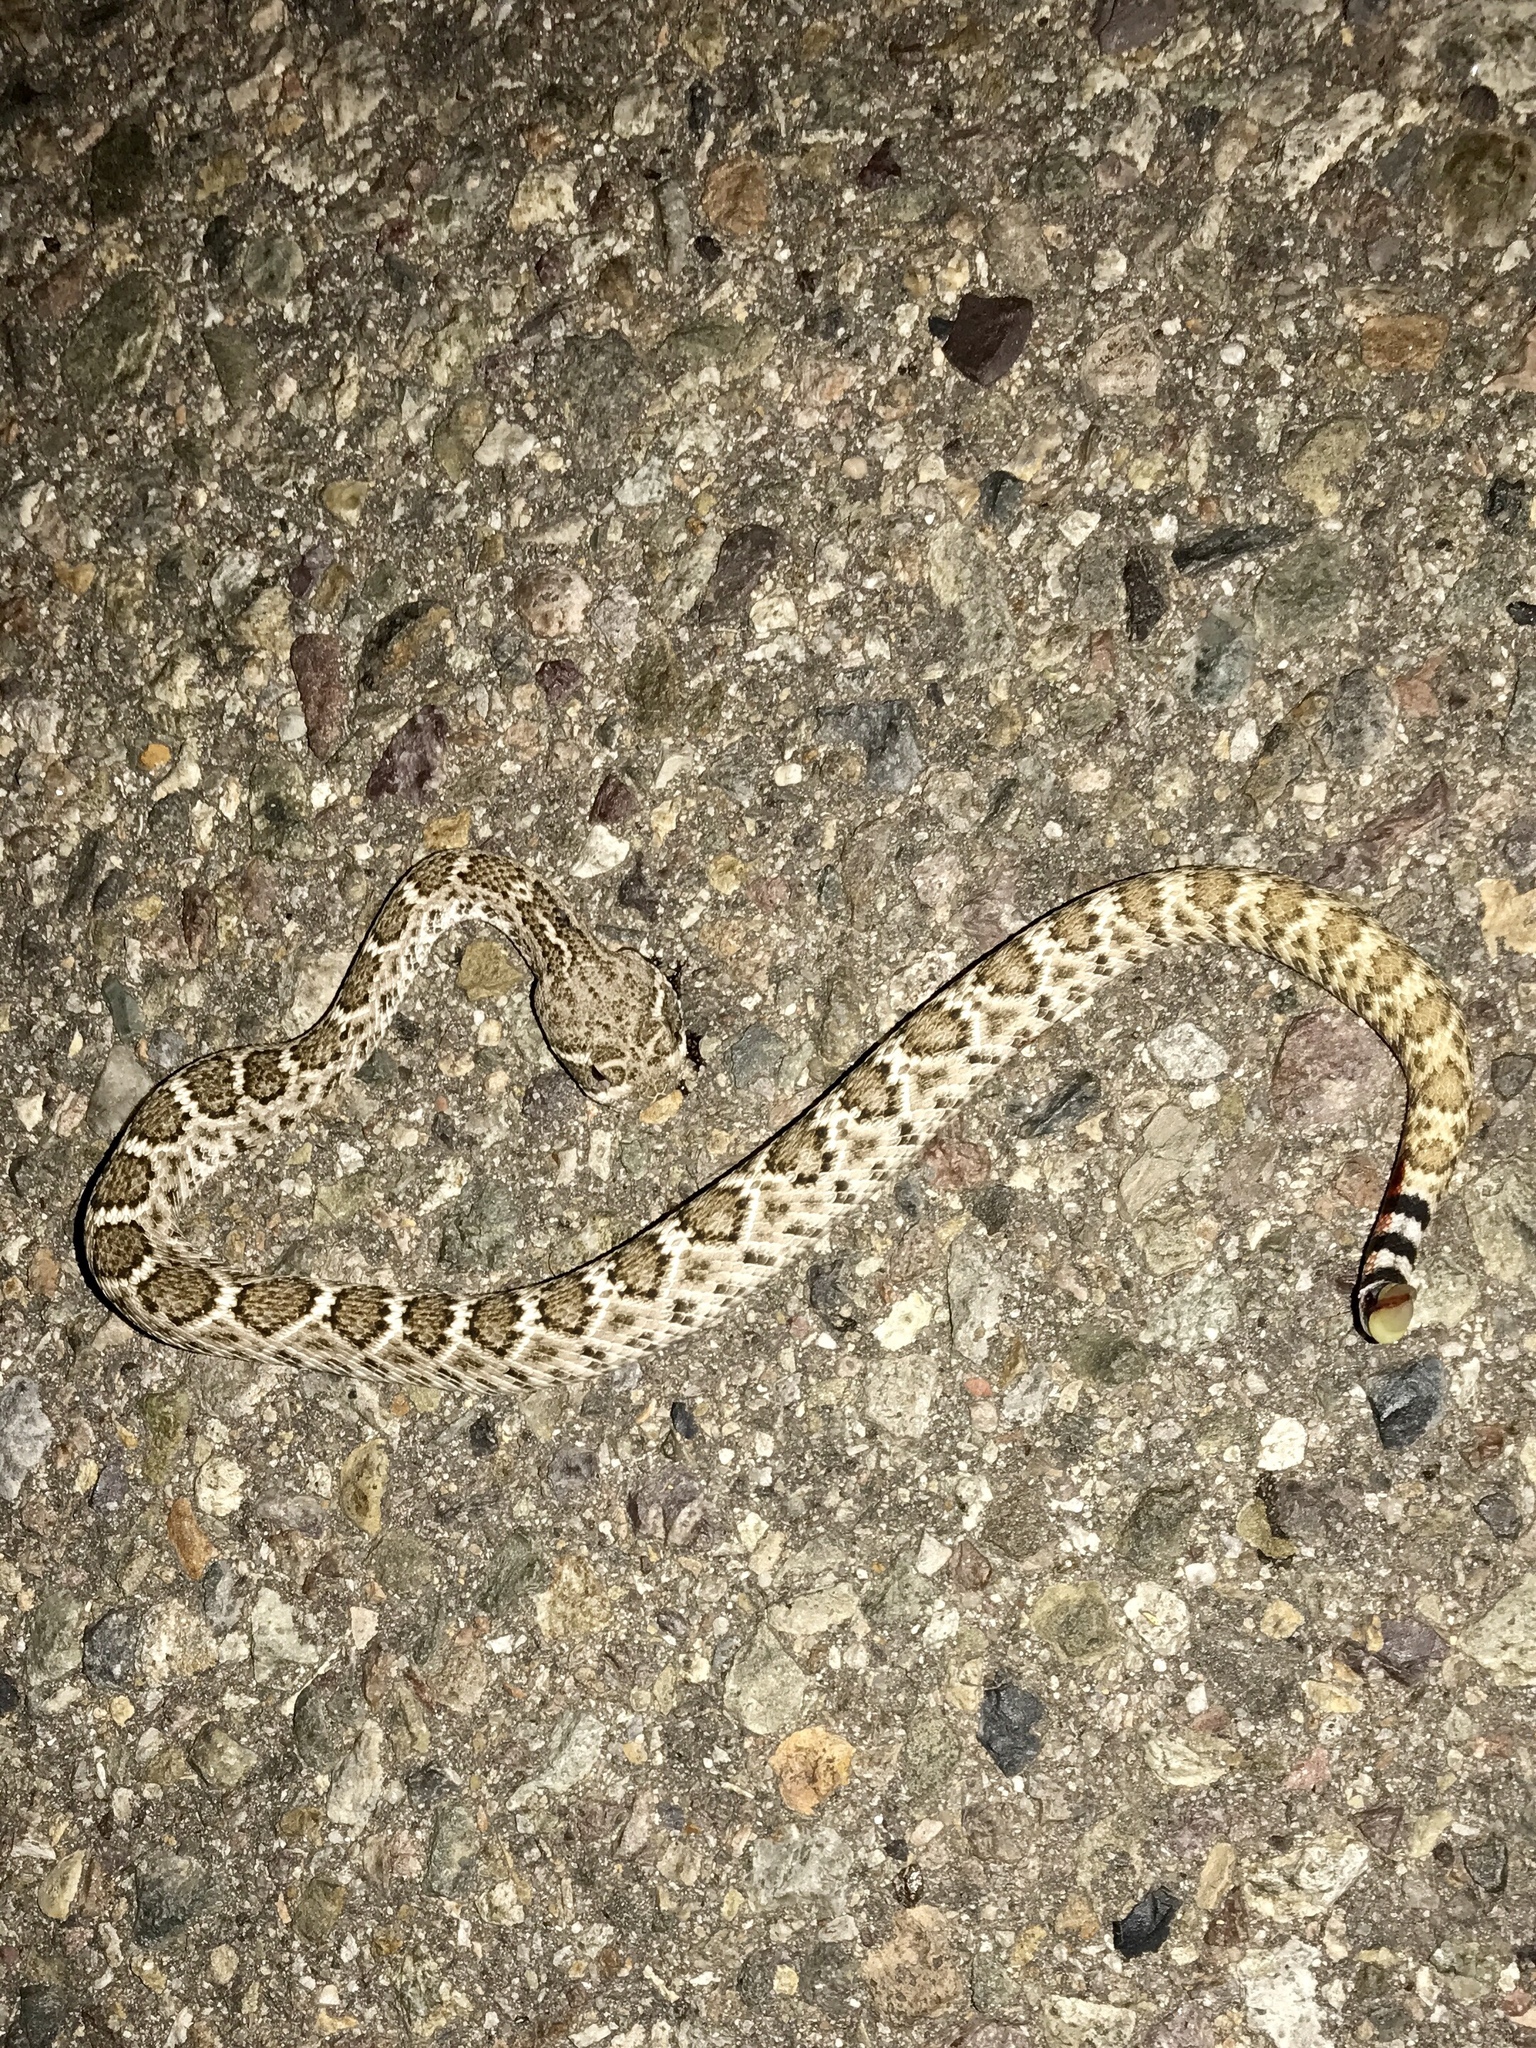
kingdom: Animalia
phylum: Chordata
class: Squamata
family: Viperidae
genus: Crotalus
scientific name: Crotalus atrox
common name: Western diamond-backed rattlesnake
